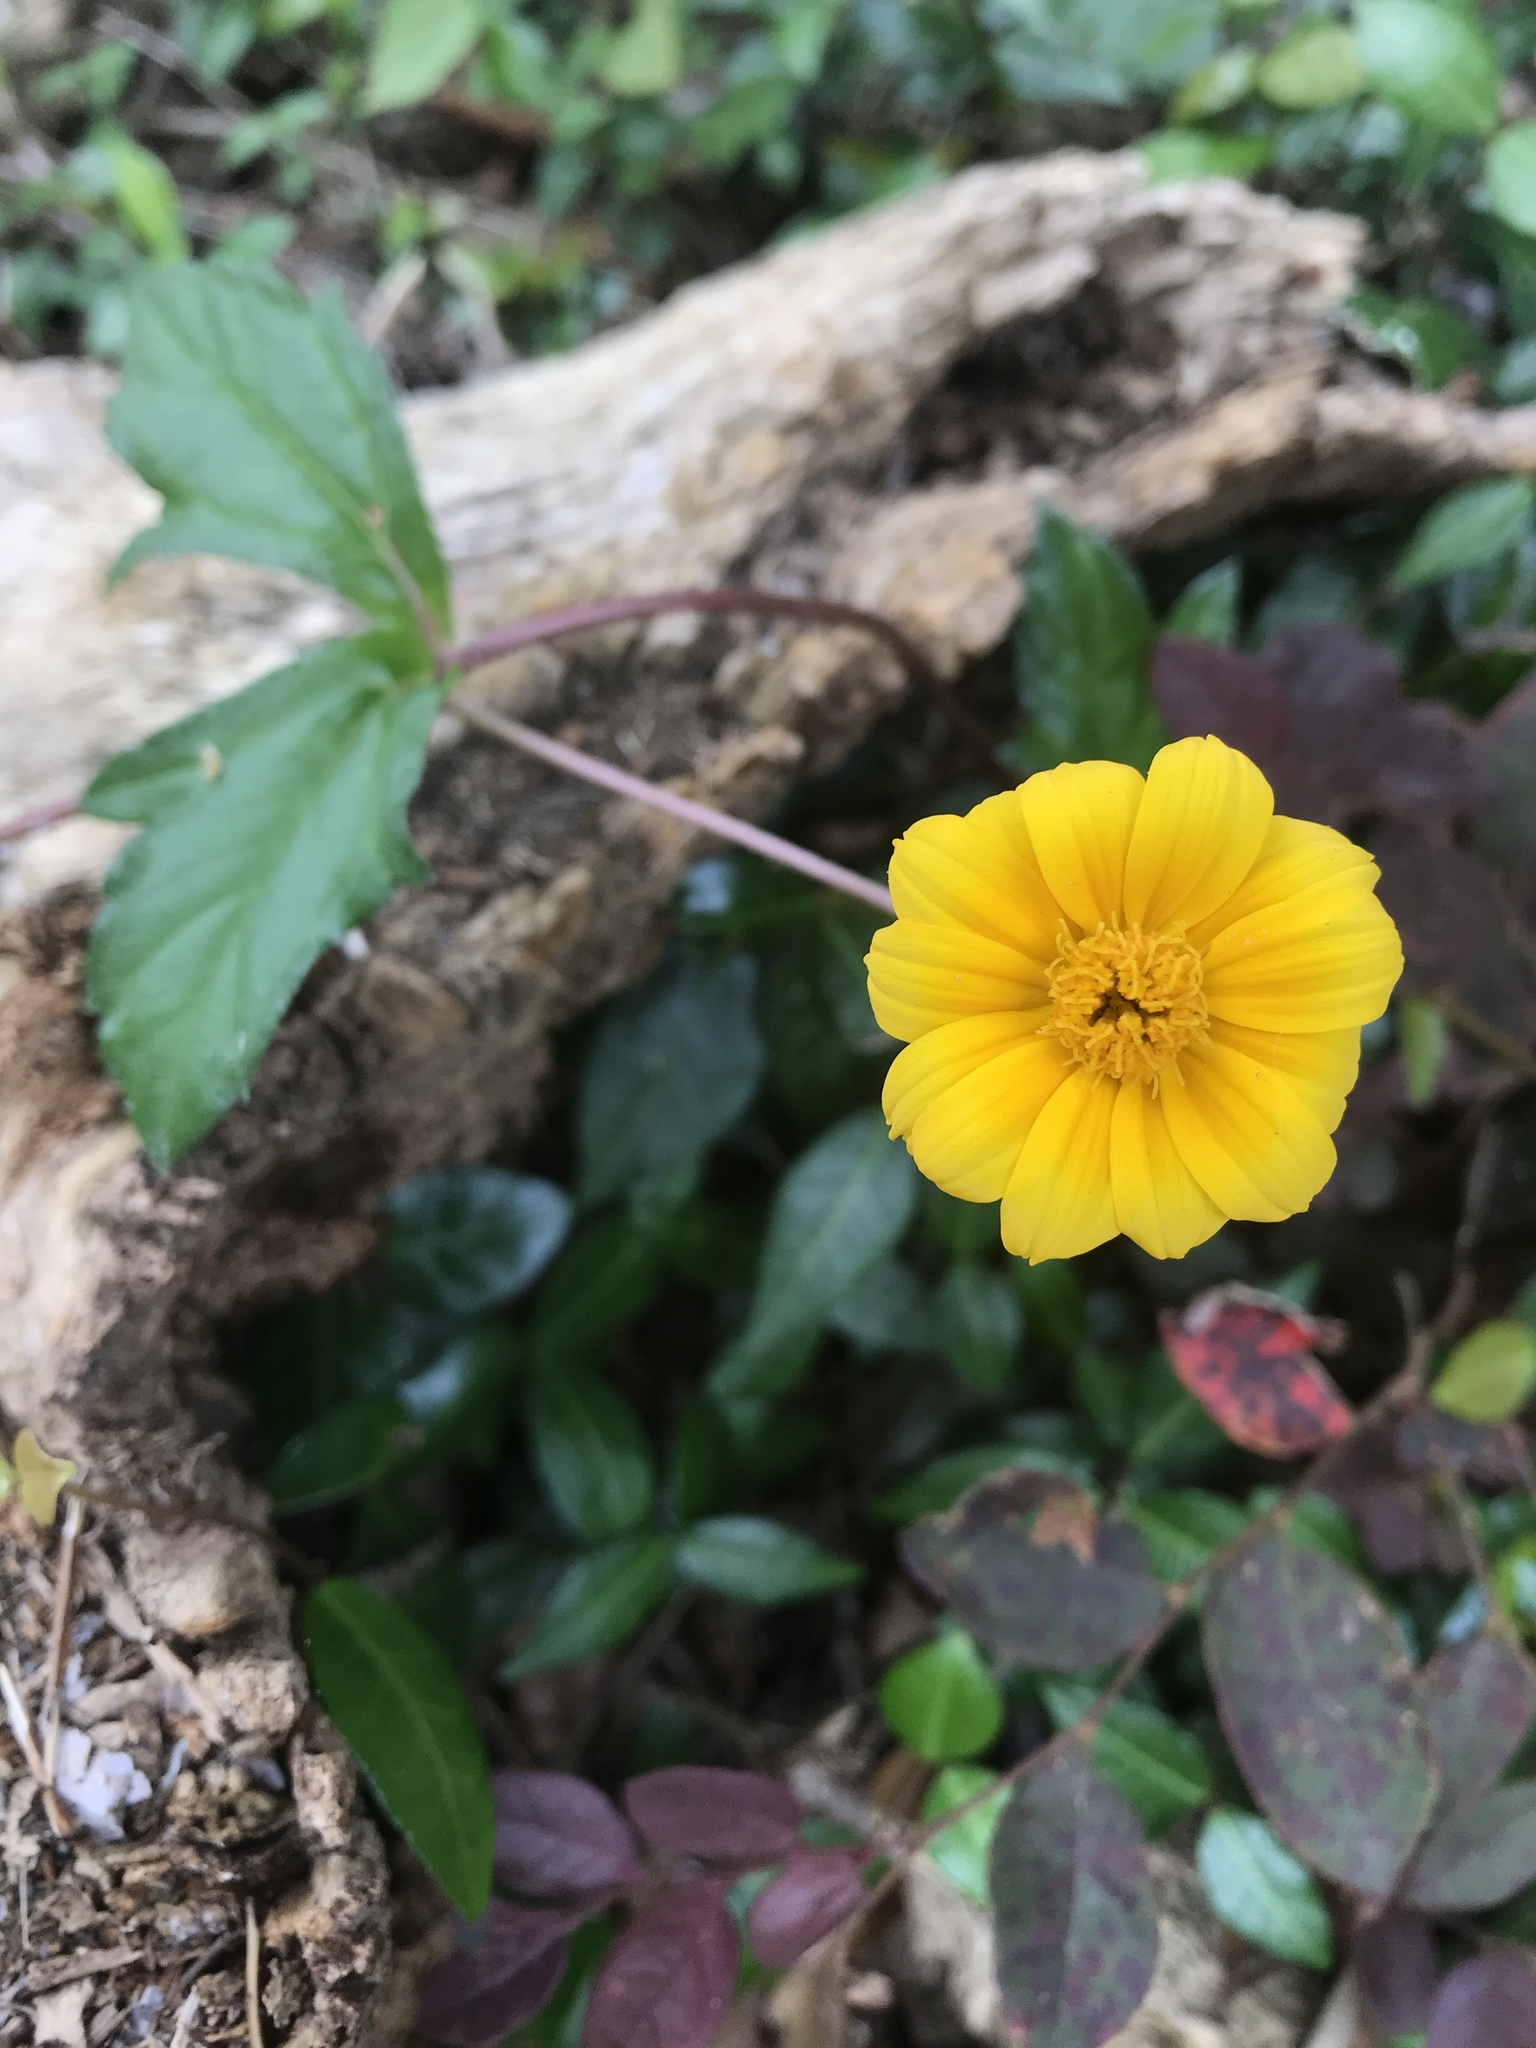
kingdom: Plantae
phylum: Tracheophyta
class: Magnoliopsida
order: Asterales
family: Asteraceae
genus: Sphagneticola
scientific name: Sphagneticola trilobata
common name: Bay biscayne creeping-oxeye
